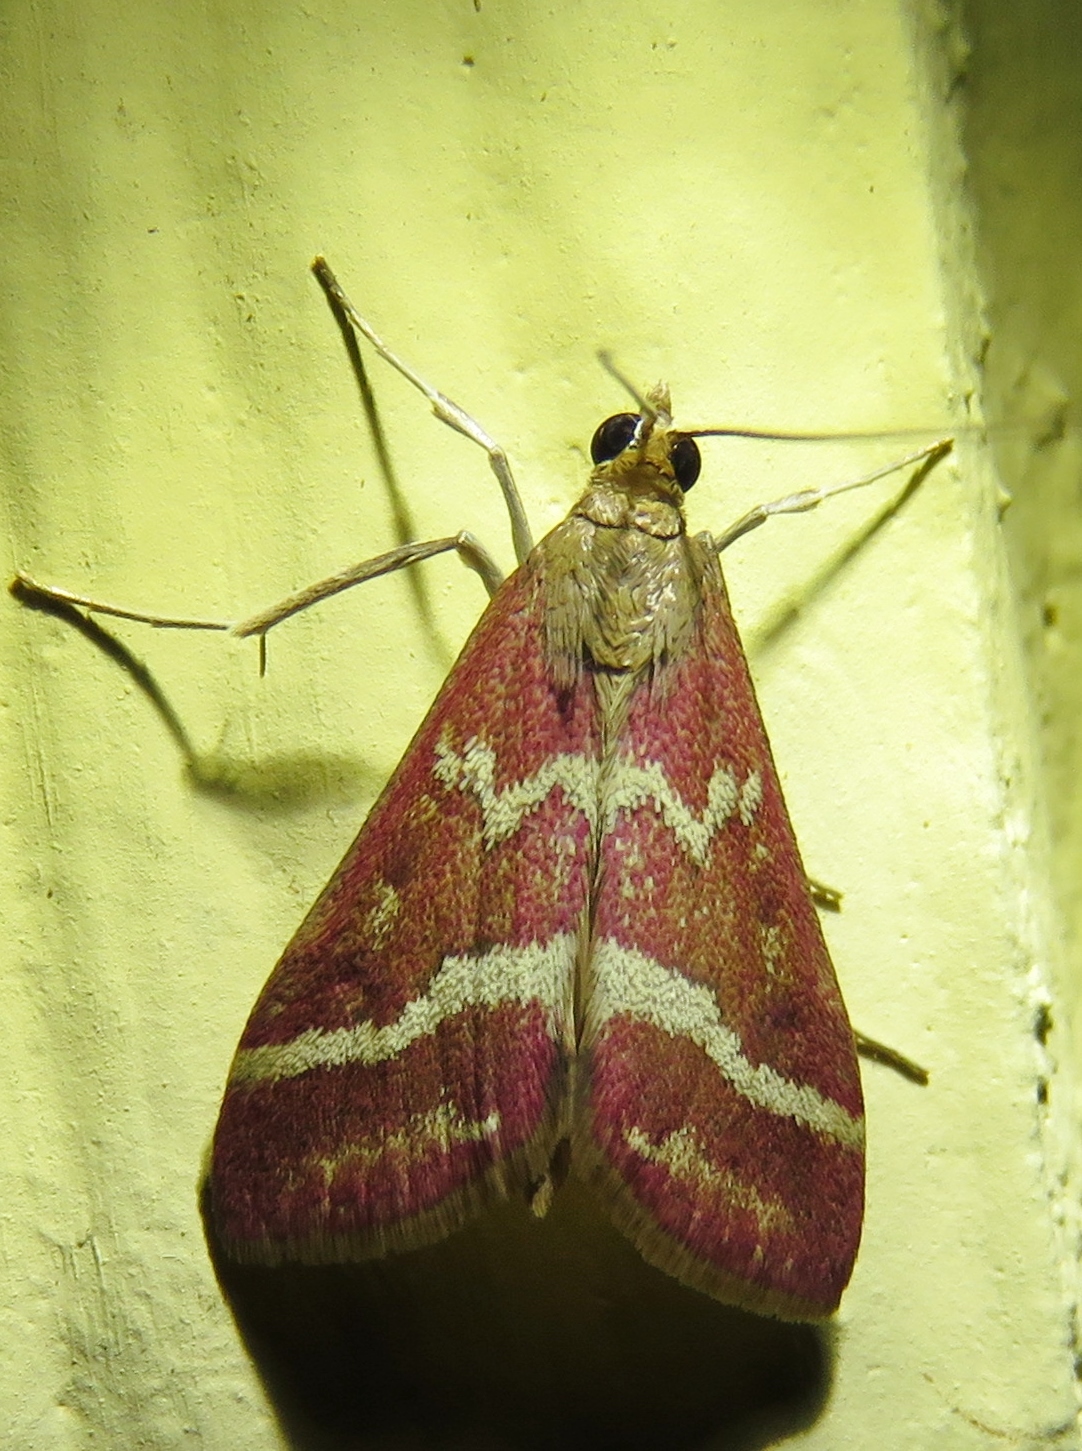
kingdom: Animalia
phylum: Arthropoda
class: Insecta
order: Lepidoptera
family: Crambidae
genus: Pyrausta
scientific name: Pyrausta volupialis
